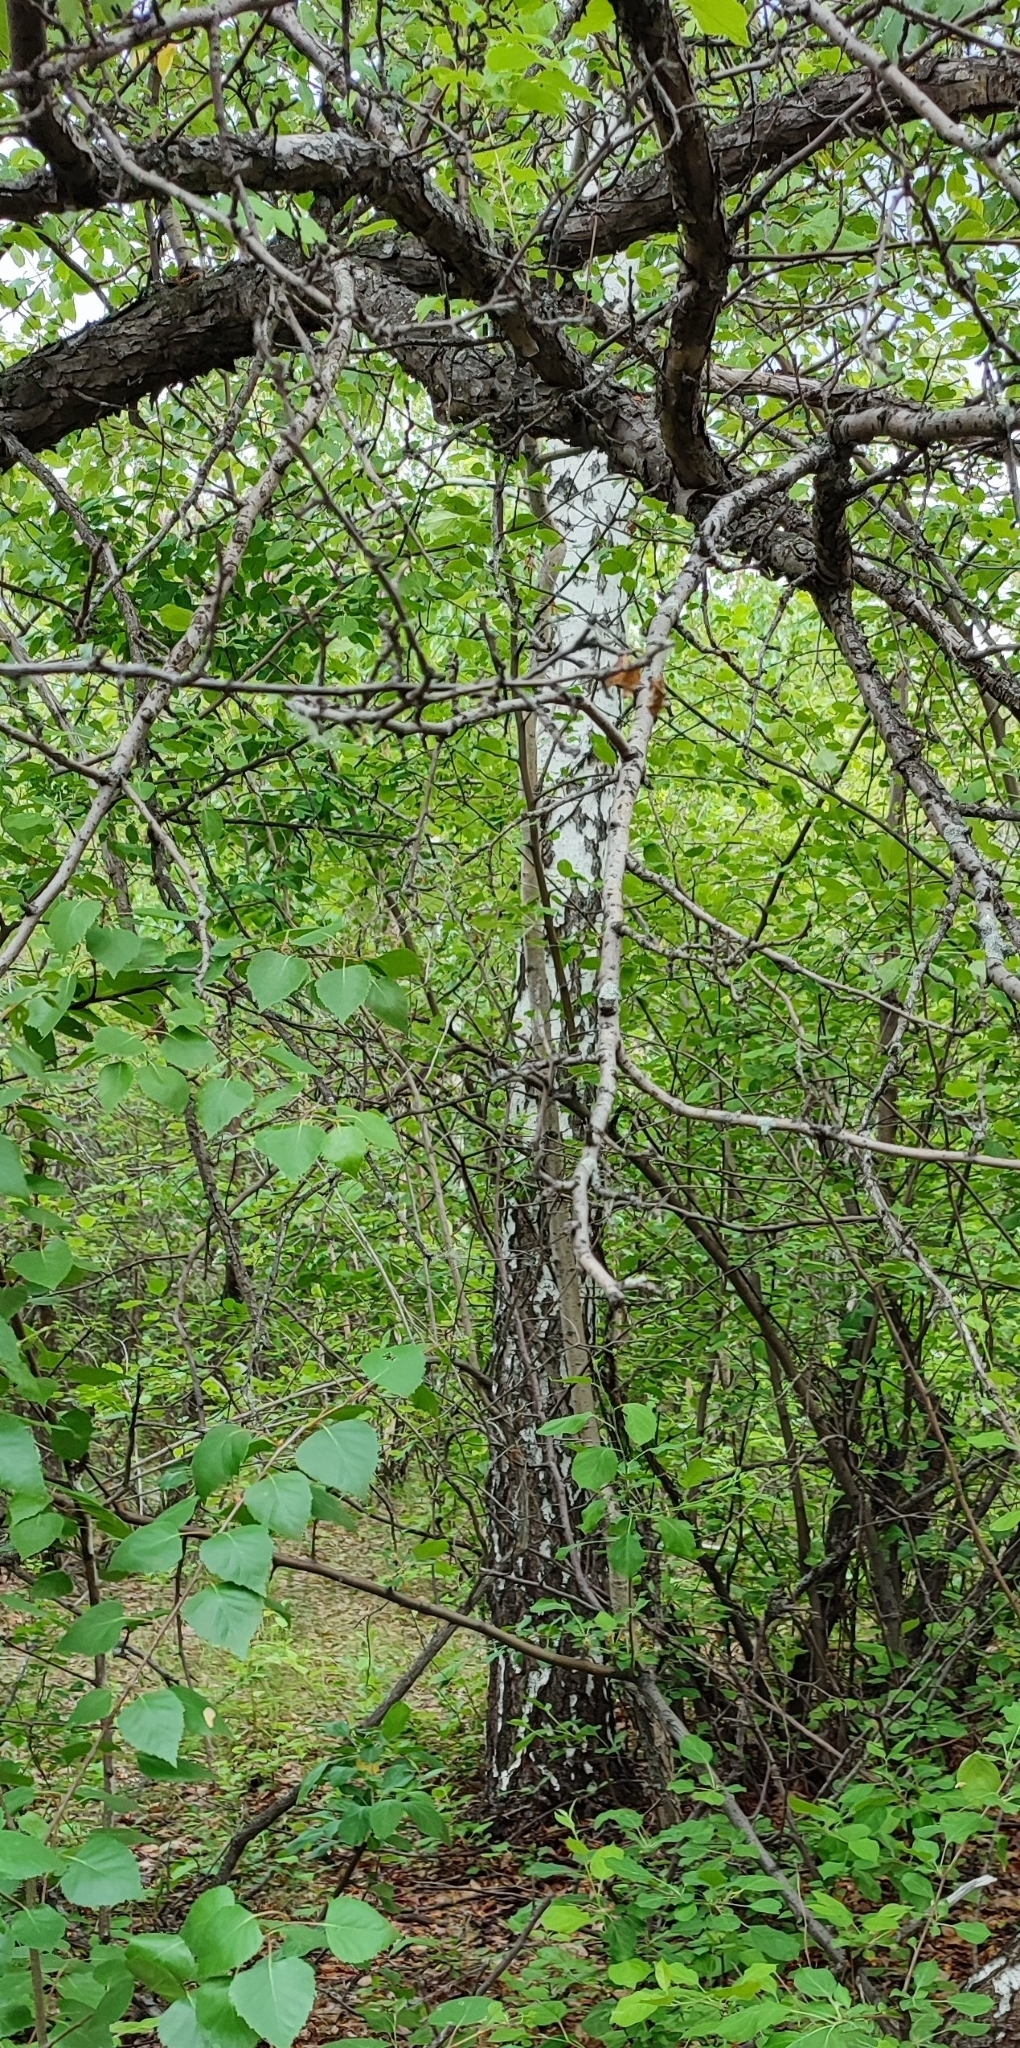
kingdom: Plantae
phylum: Tracheophyta
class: Magnoliopsida
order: Fagales
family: Betulaceae
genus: Betula
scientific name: Betula pendula
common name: Silver birch
